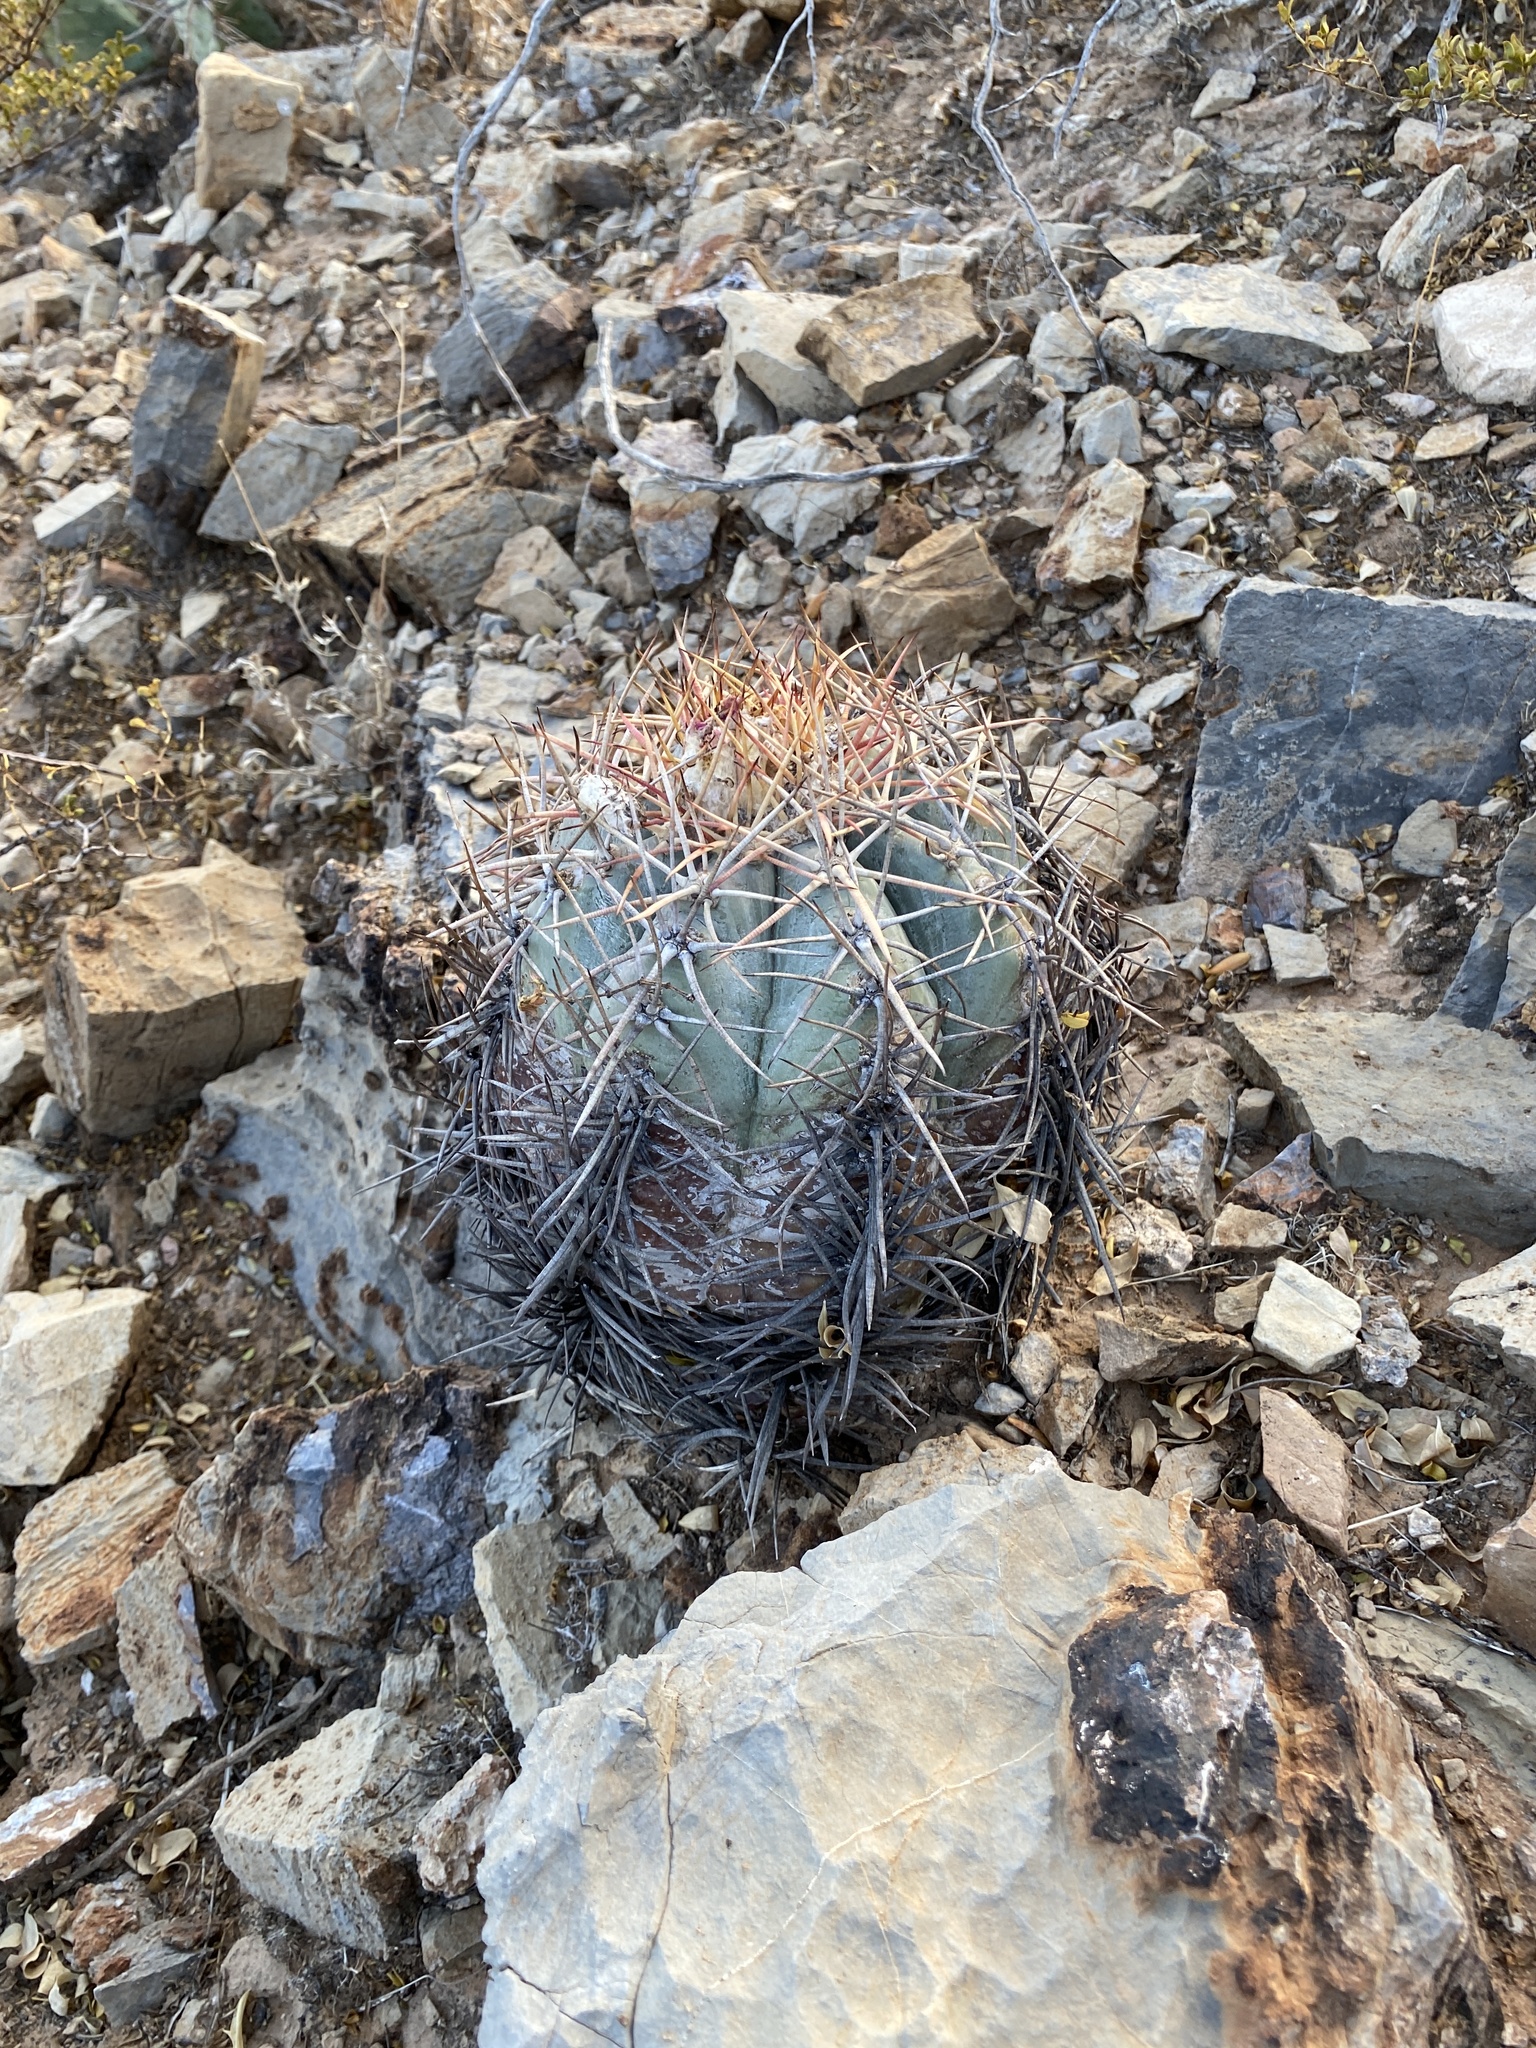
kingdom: Plantae
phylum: Tracheophyta
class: Magnoliopsida
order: Caryophyllales
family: Cactaceae
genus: Echinocactus
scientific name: Echinocactus horizonthalonius
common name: Devilshead
